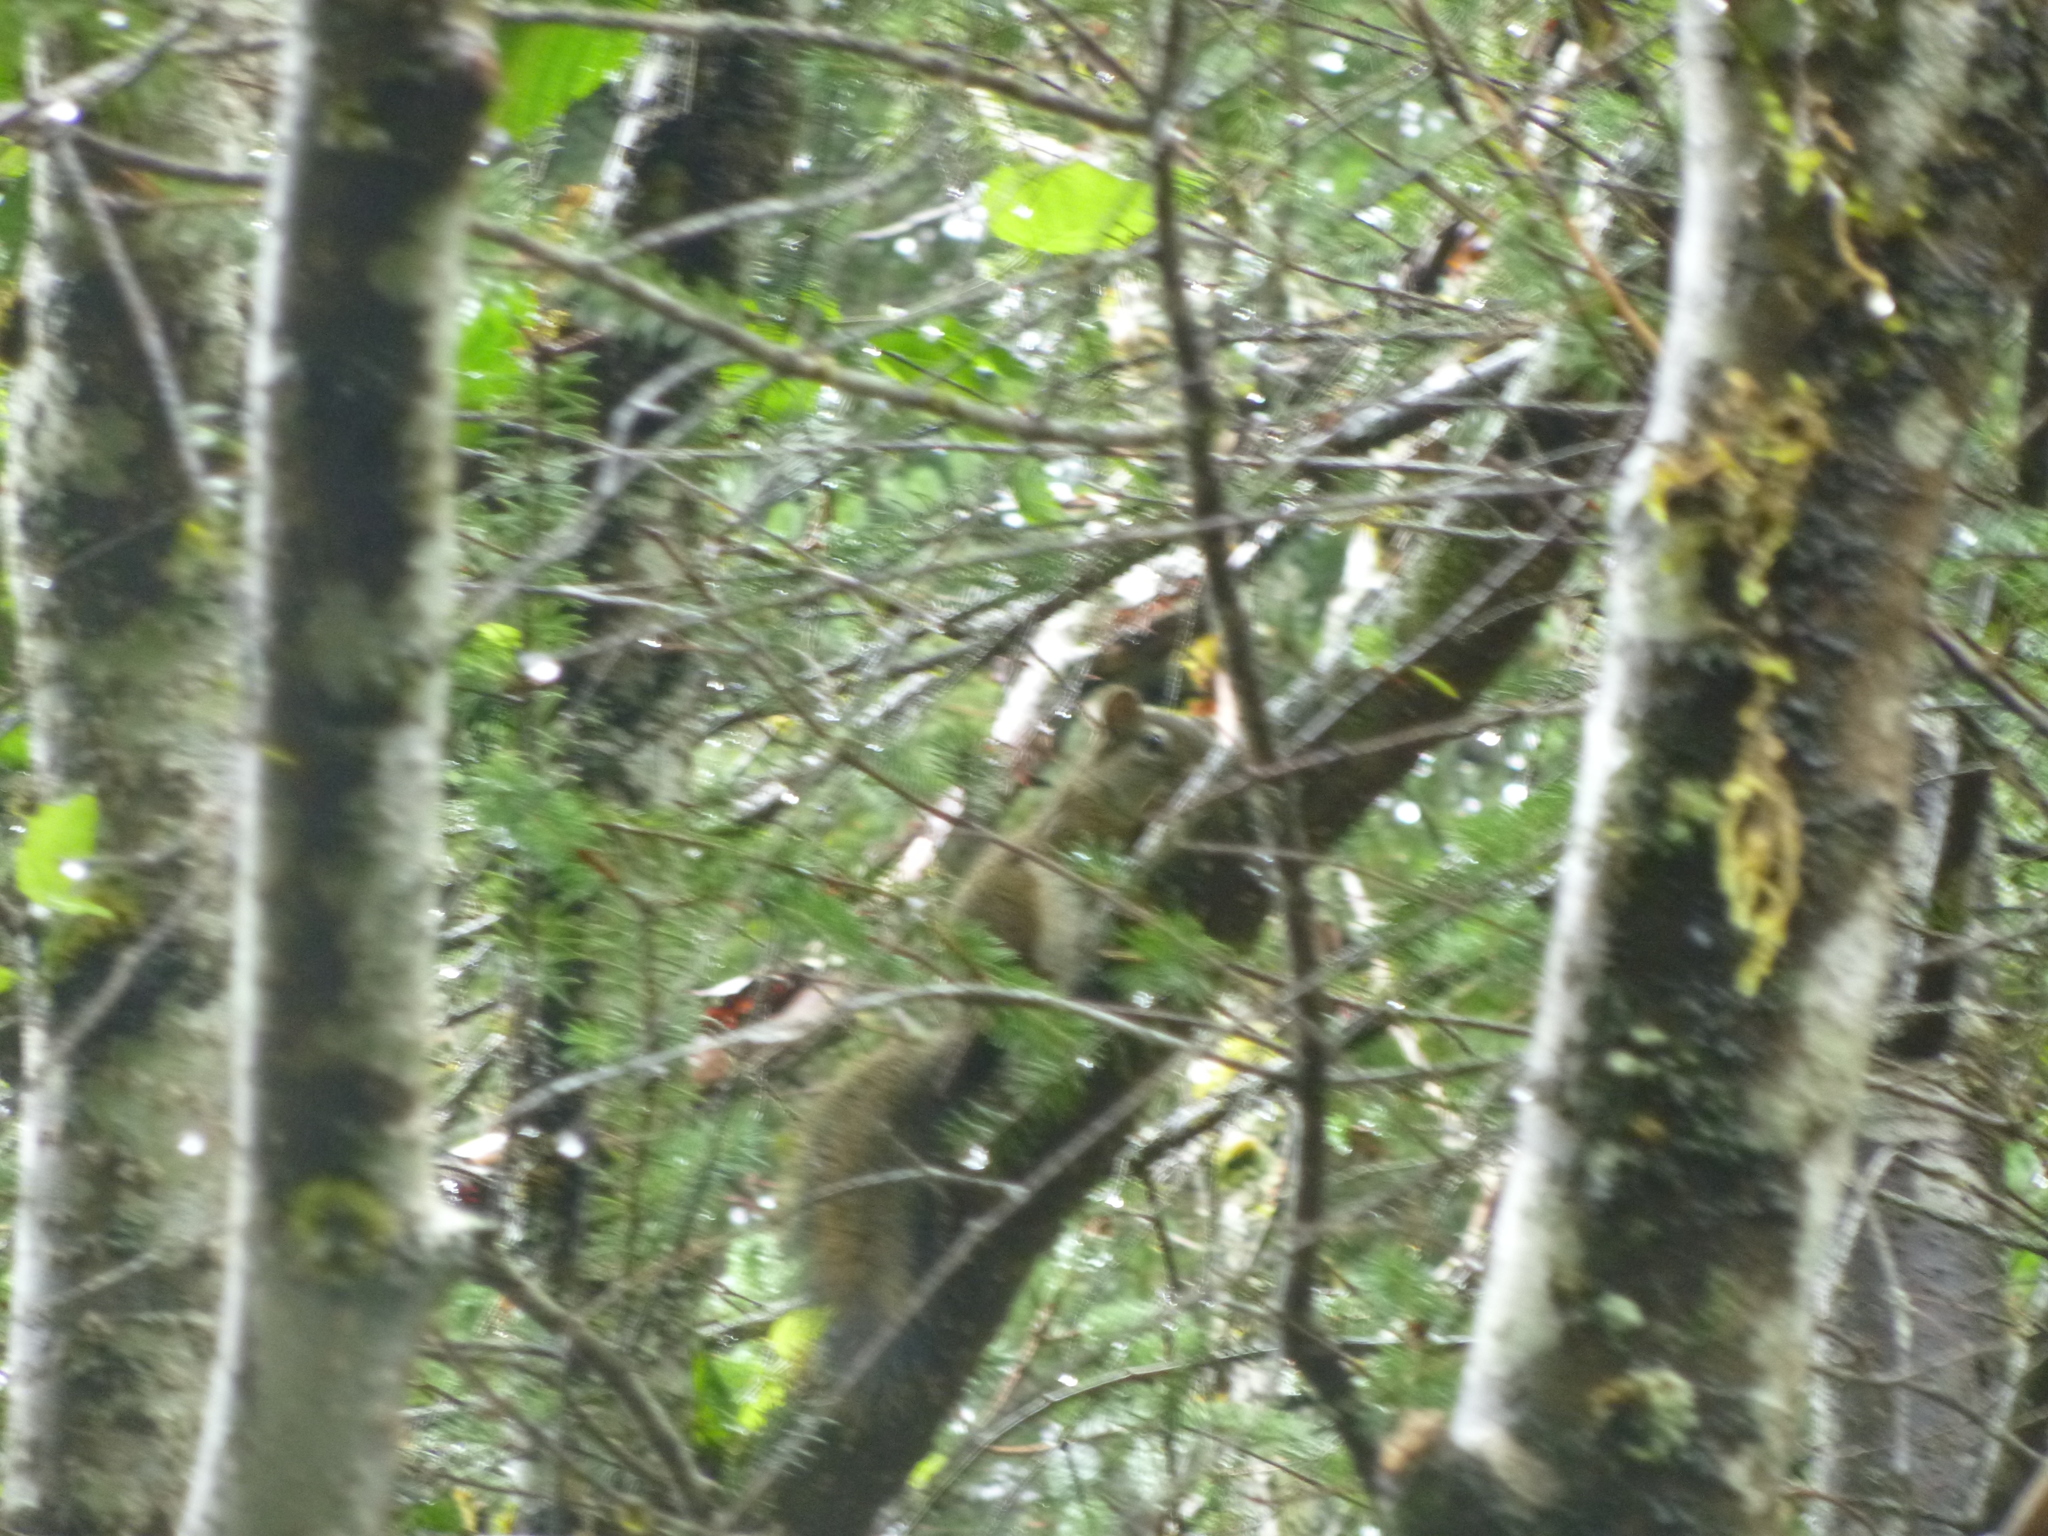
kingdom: Animalia
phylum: Chordata
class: Mammalia
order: Rodentia
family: Sciuridae
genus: Tamiasciurus
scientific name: Tamiasciurus hudsonicus
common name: Red squirrel
